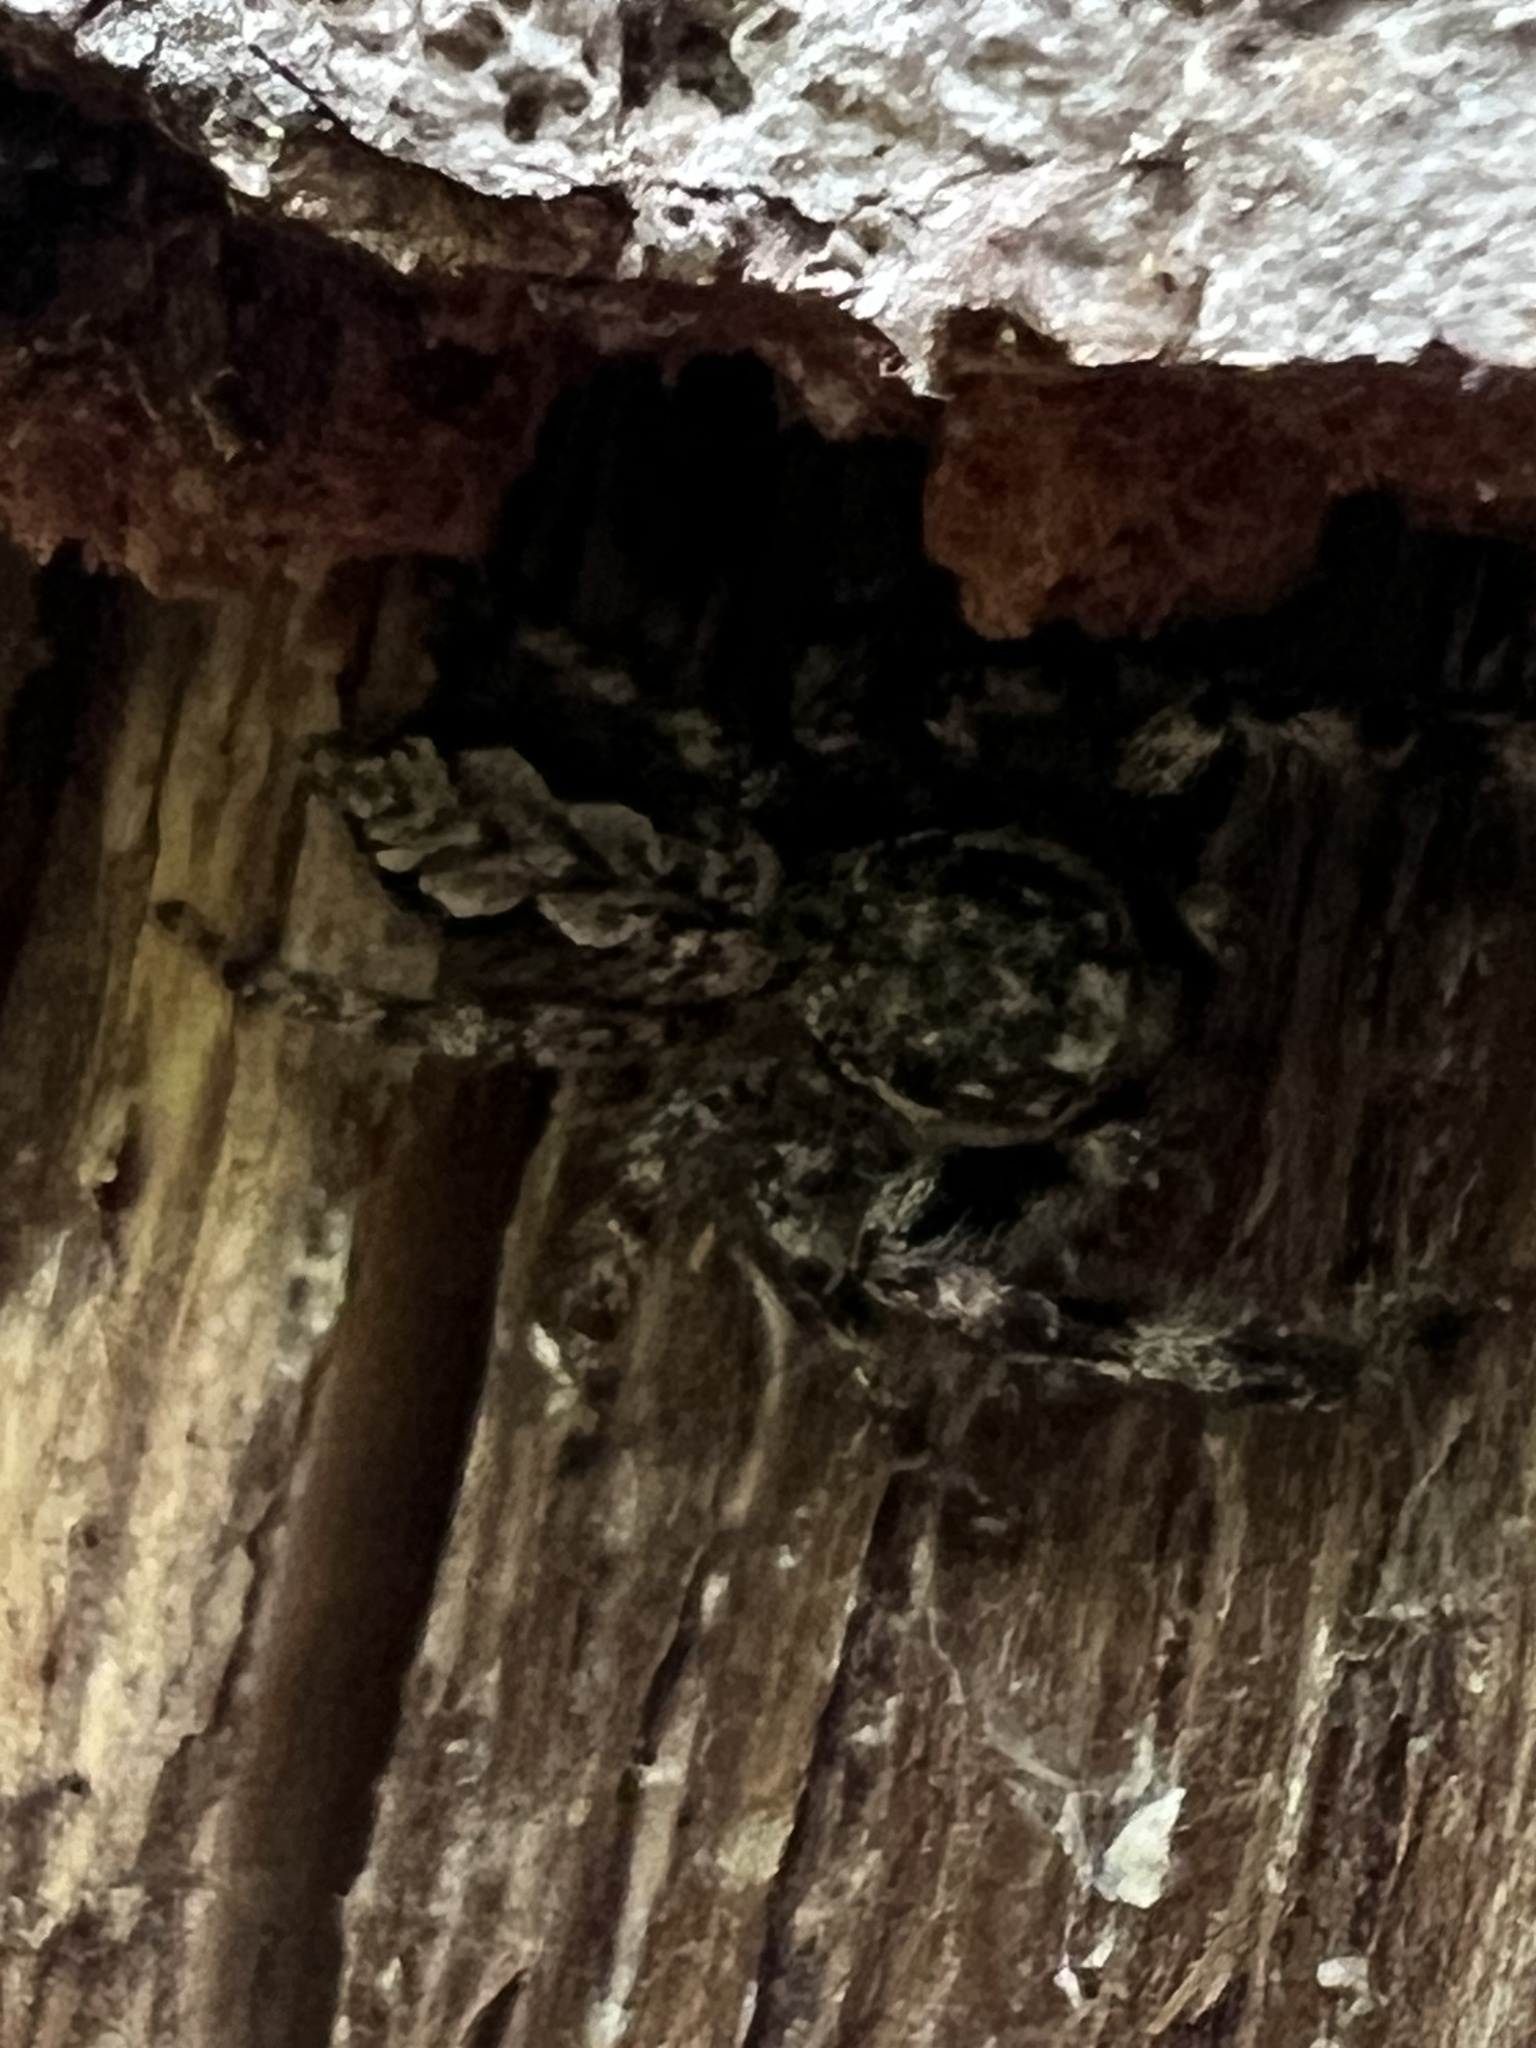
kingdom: Animalia
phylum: Arthropoda
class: Arachnida
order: Araneae
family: Salticidae
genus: Platycryptus
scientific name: Platycryptus undatus
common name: Tan jumping spider
